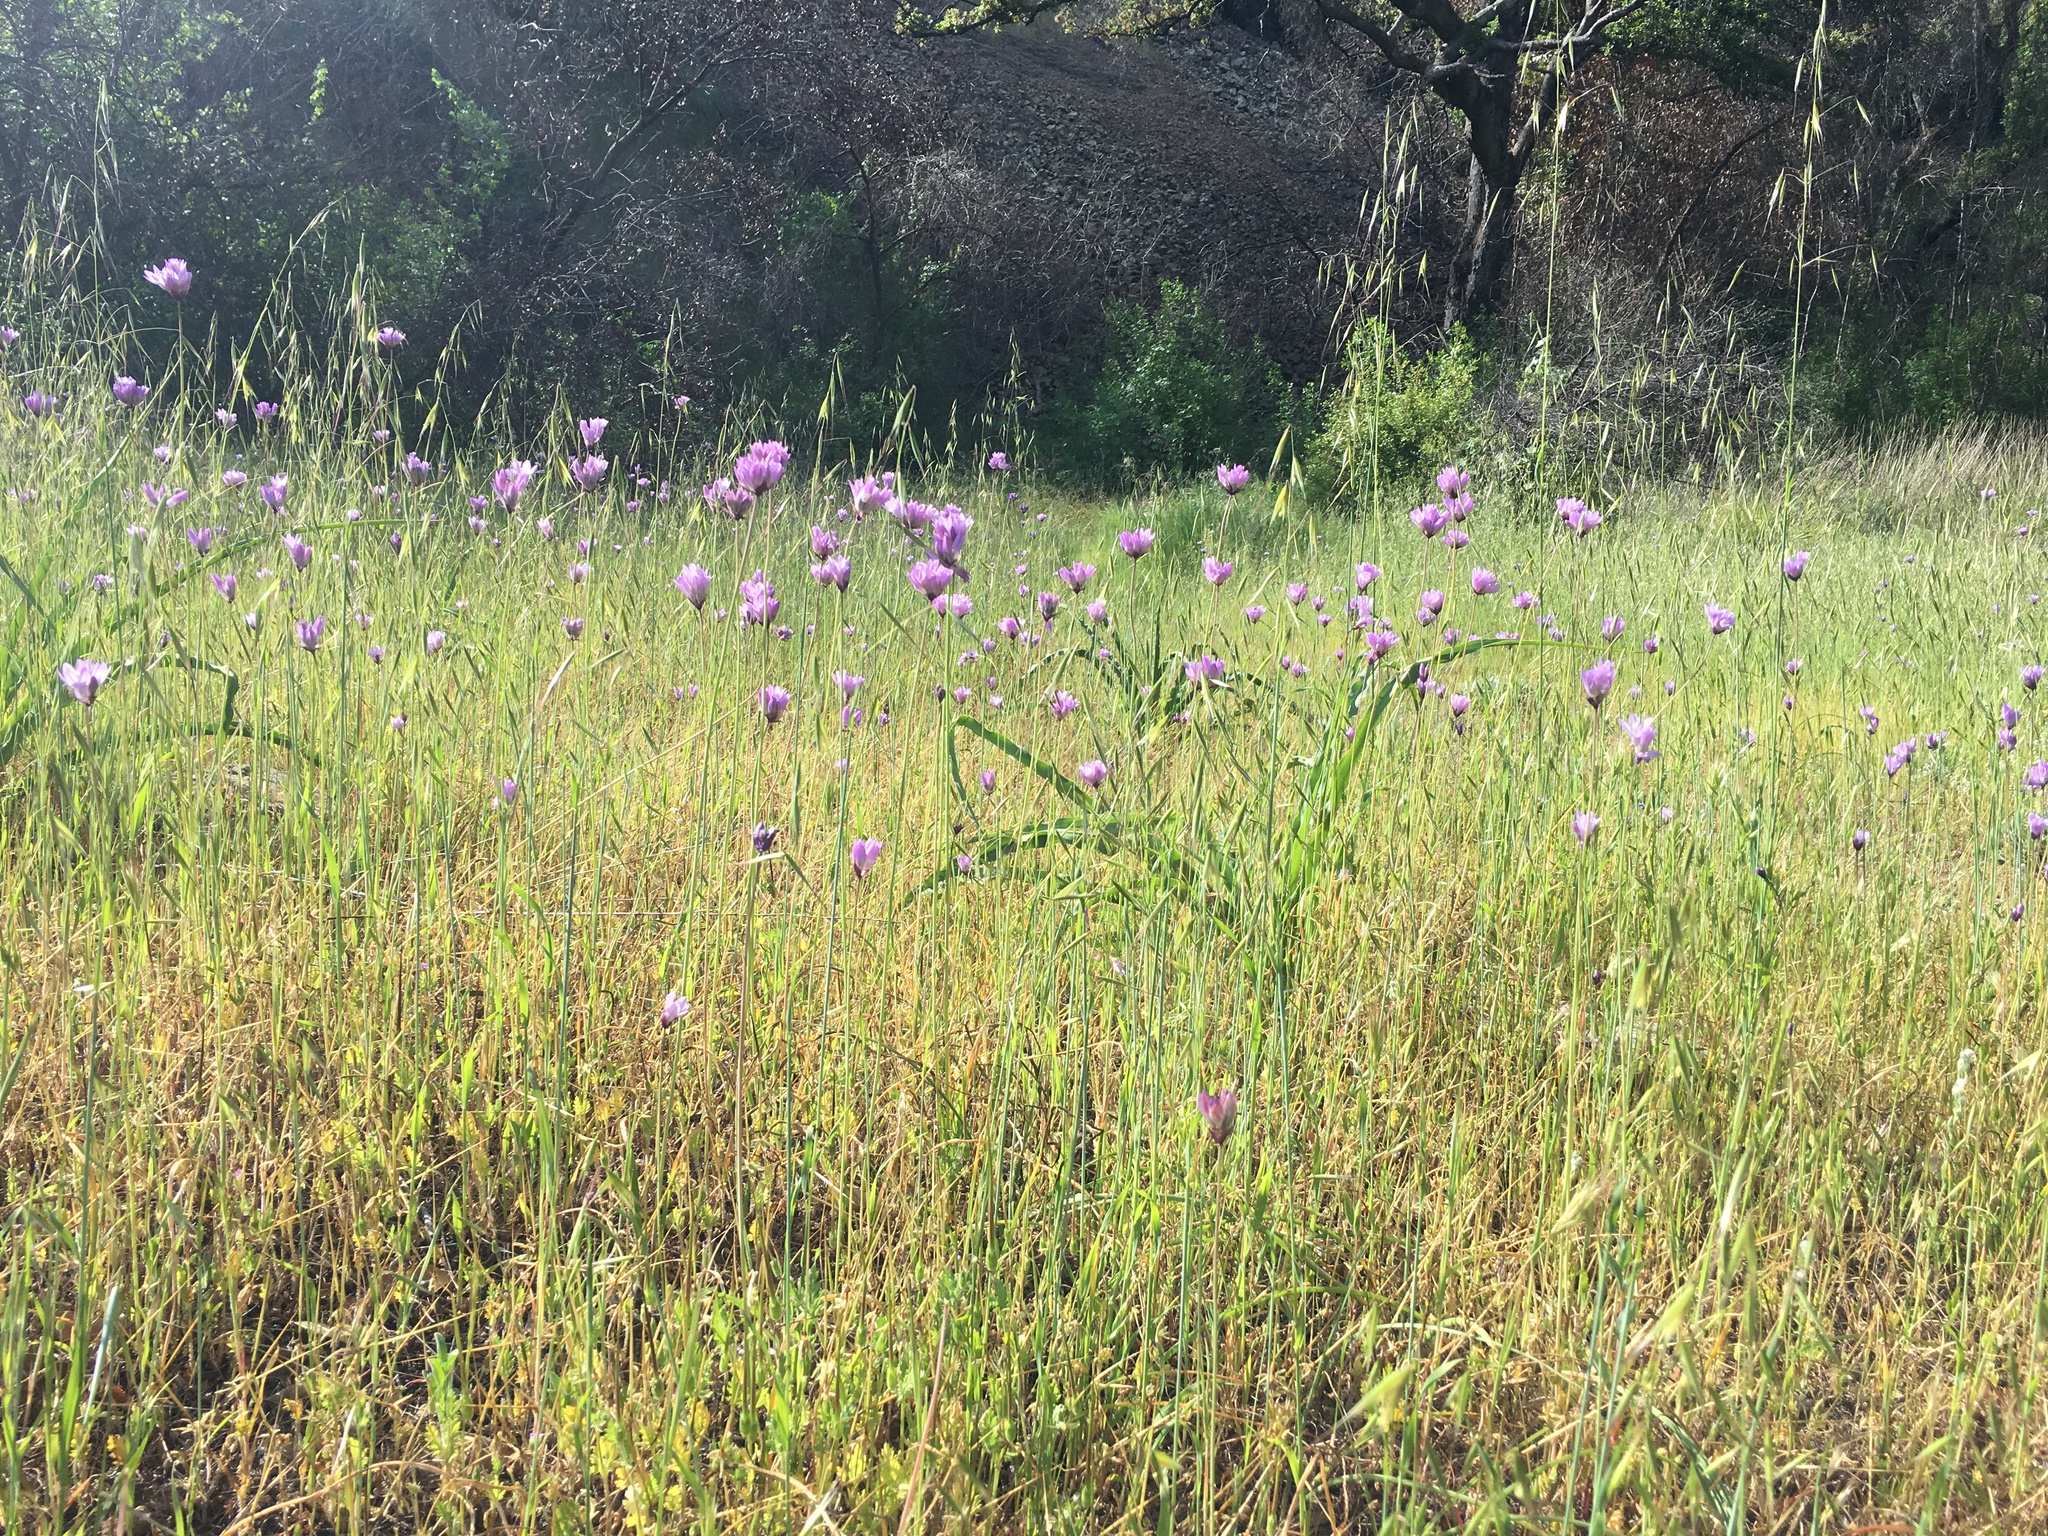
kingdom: Plantae
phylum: Tracheophyta
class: Liliopsida
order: Asparagales
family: Asparagaceae
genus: Dipterostemon
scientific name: Dipterostemon capitatus
